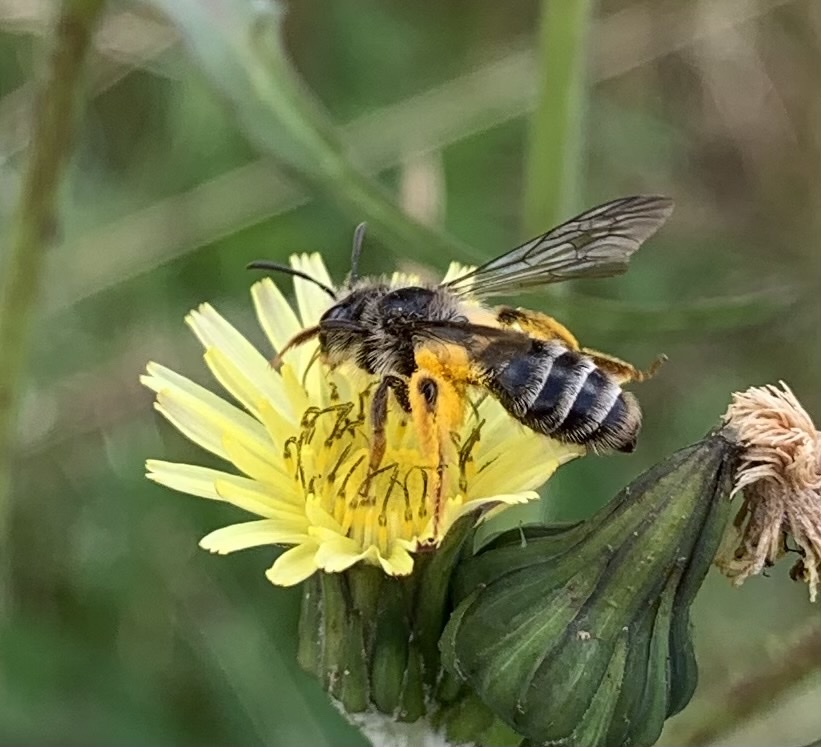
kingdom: Animalia
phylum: Arthropoda
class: Insecta
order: Hymenoptera
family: Andrenidae
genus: Andrena
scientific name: Andrena denticulata
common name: Grey-banded mining bee
